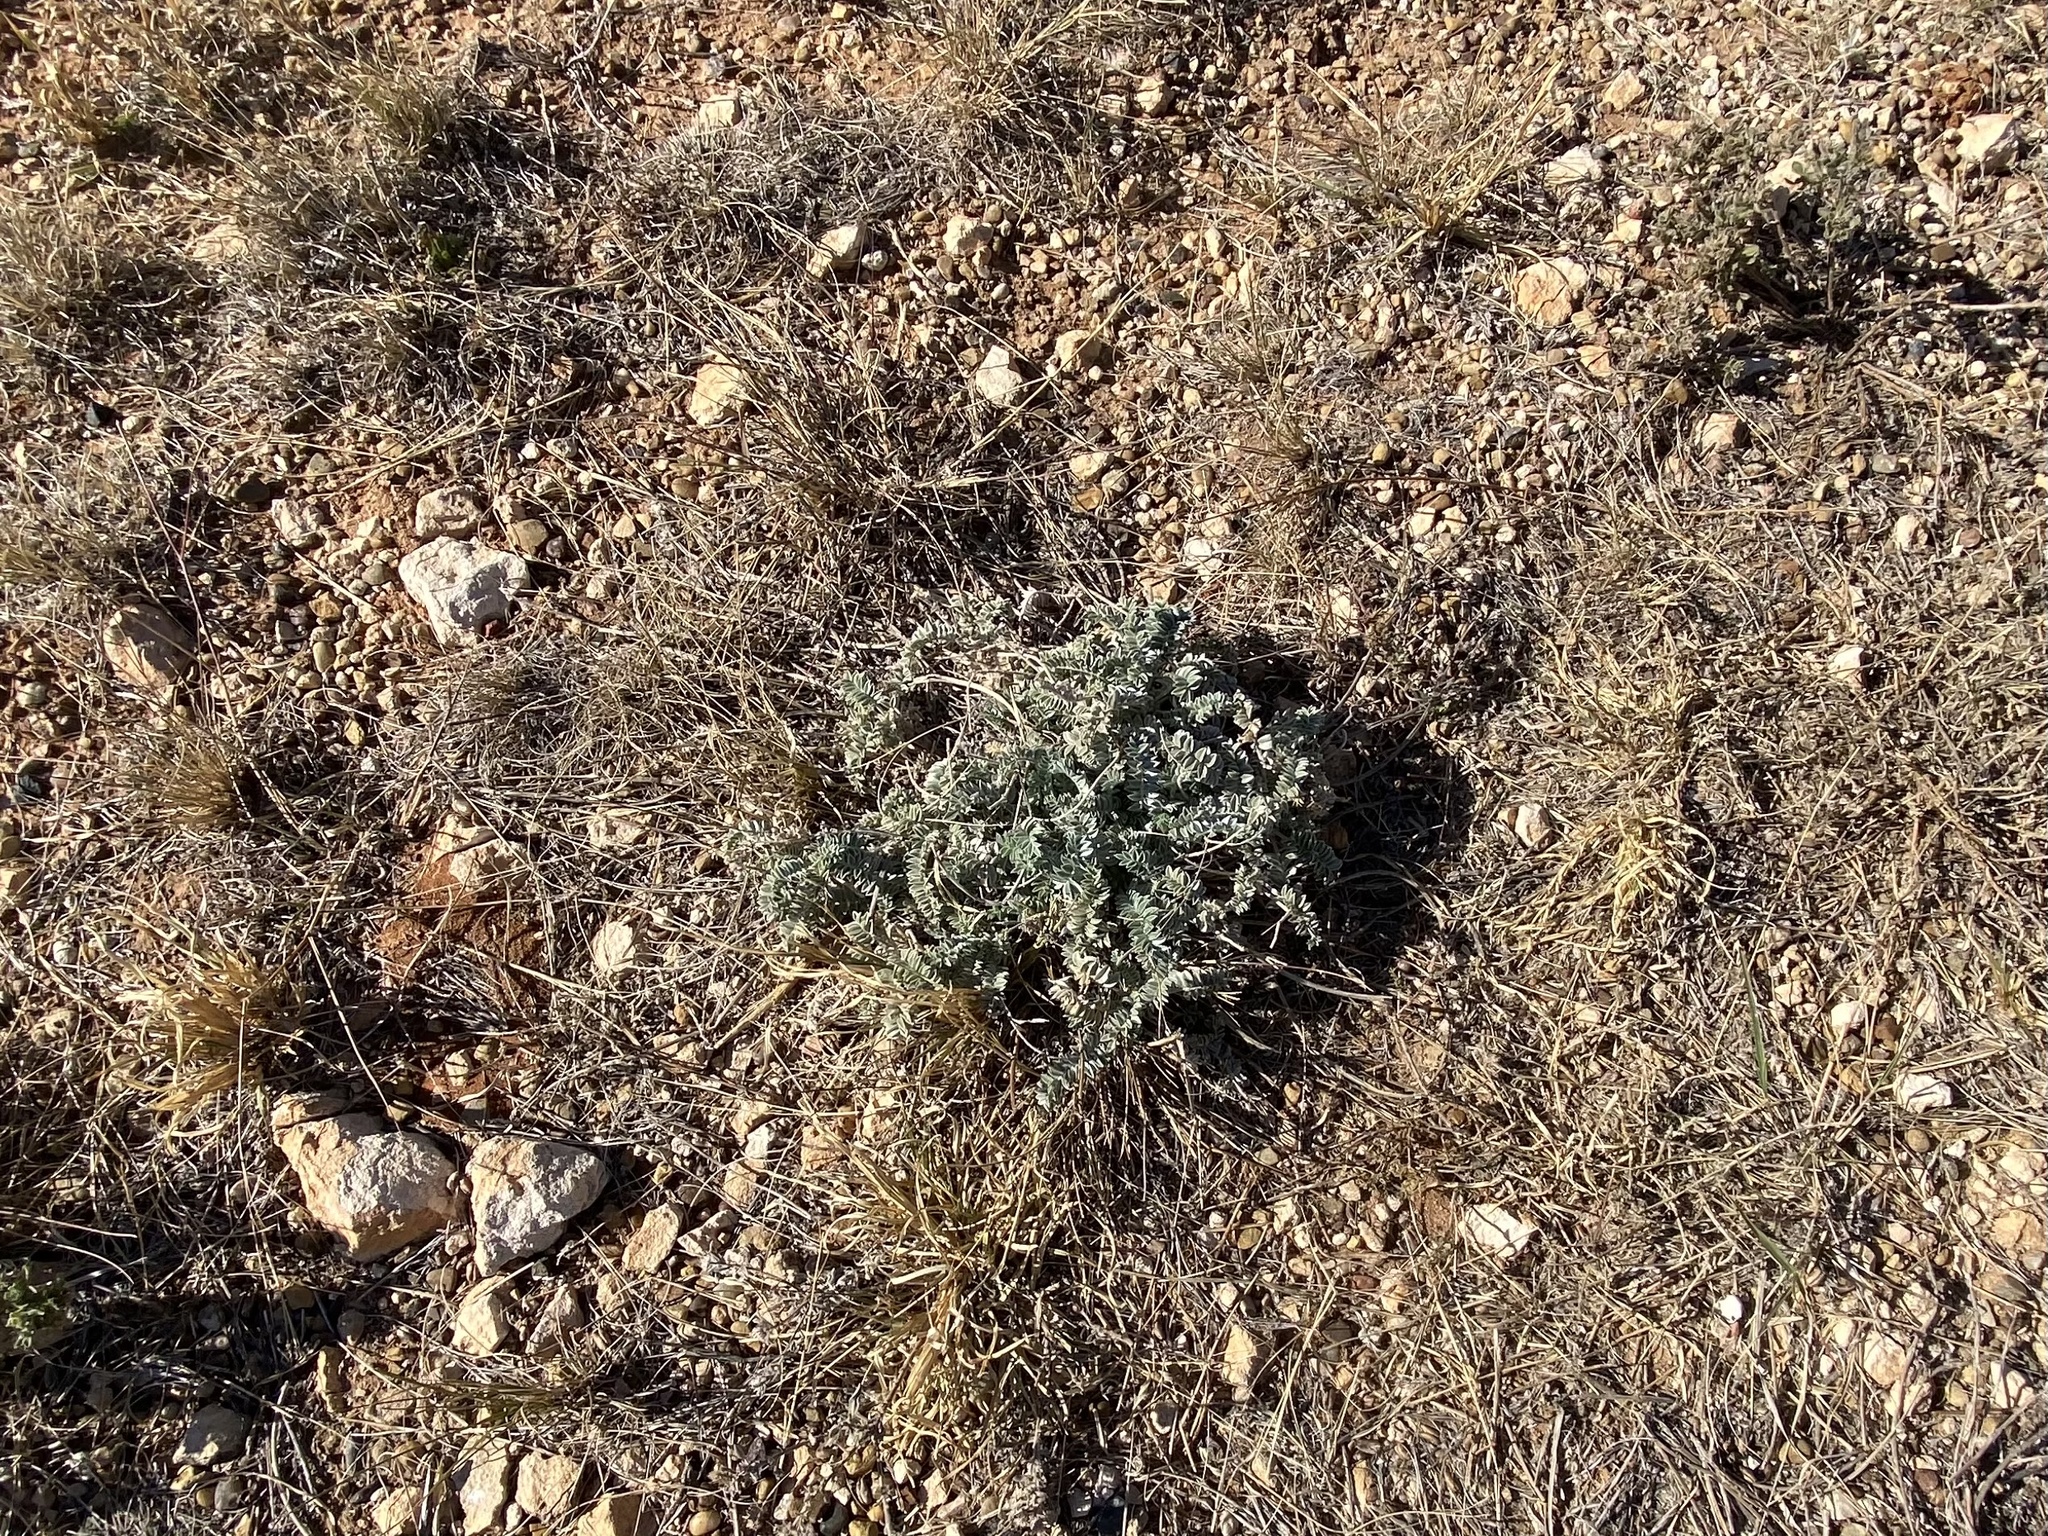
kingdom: Plantae
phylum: Tracheophyta
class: Magnoliopsida
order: Fabales
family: Fabaceae
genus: Astragalus
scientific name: Astragalus mollissimus
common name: Woolly locoweed
